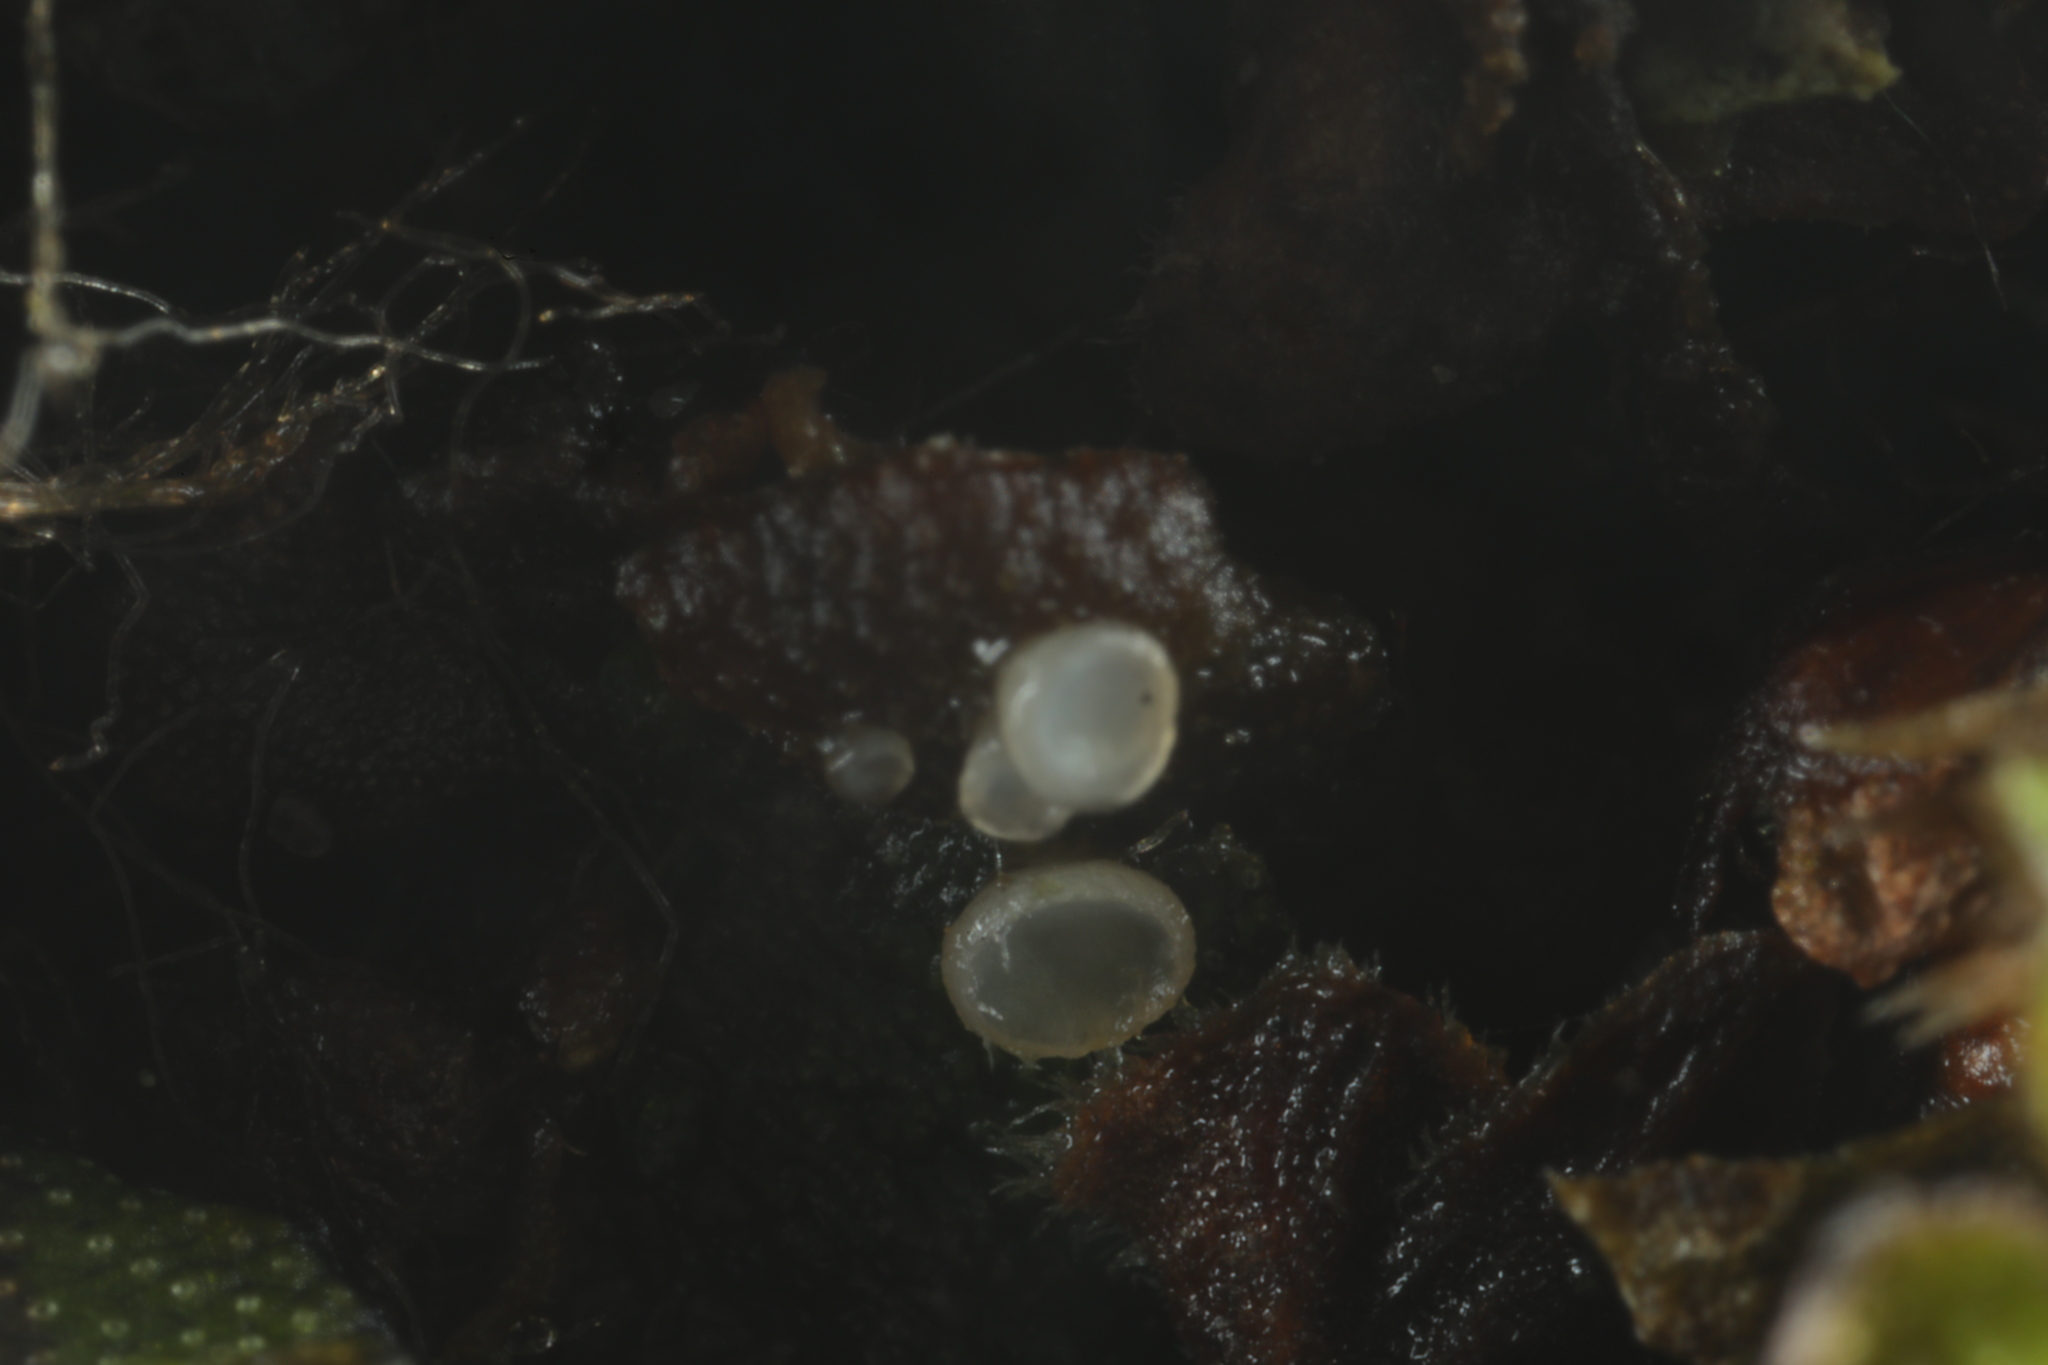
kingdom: Fungi
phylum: Ascomycota
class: Leotiomycetes
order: Helotiales
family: Discinellaceae
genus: Pezoloma
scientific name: Pezoloma marchantiae
